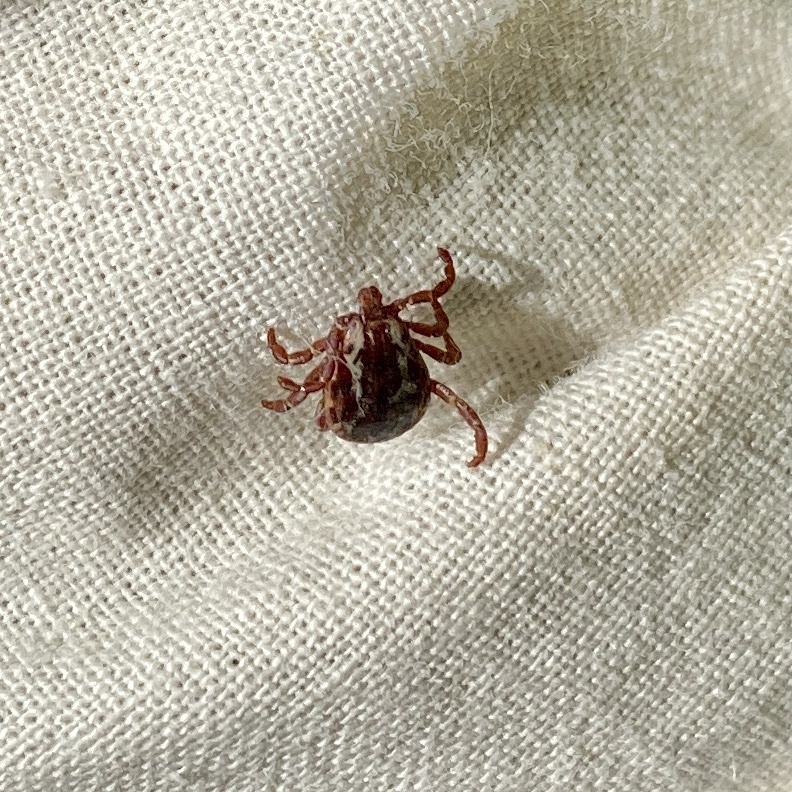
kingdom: Animalia
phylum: Arthropoda
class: Arachnida
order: Ixodida
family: Ixodidae
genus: Dermacentor
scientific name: Dermacentor variabilis
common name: American dog tick
